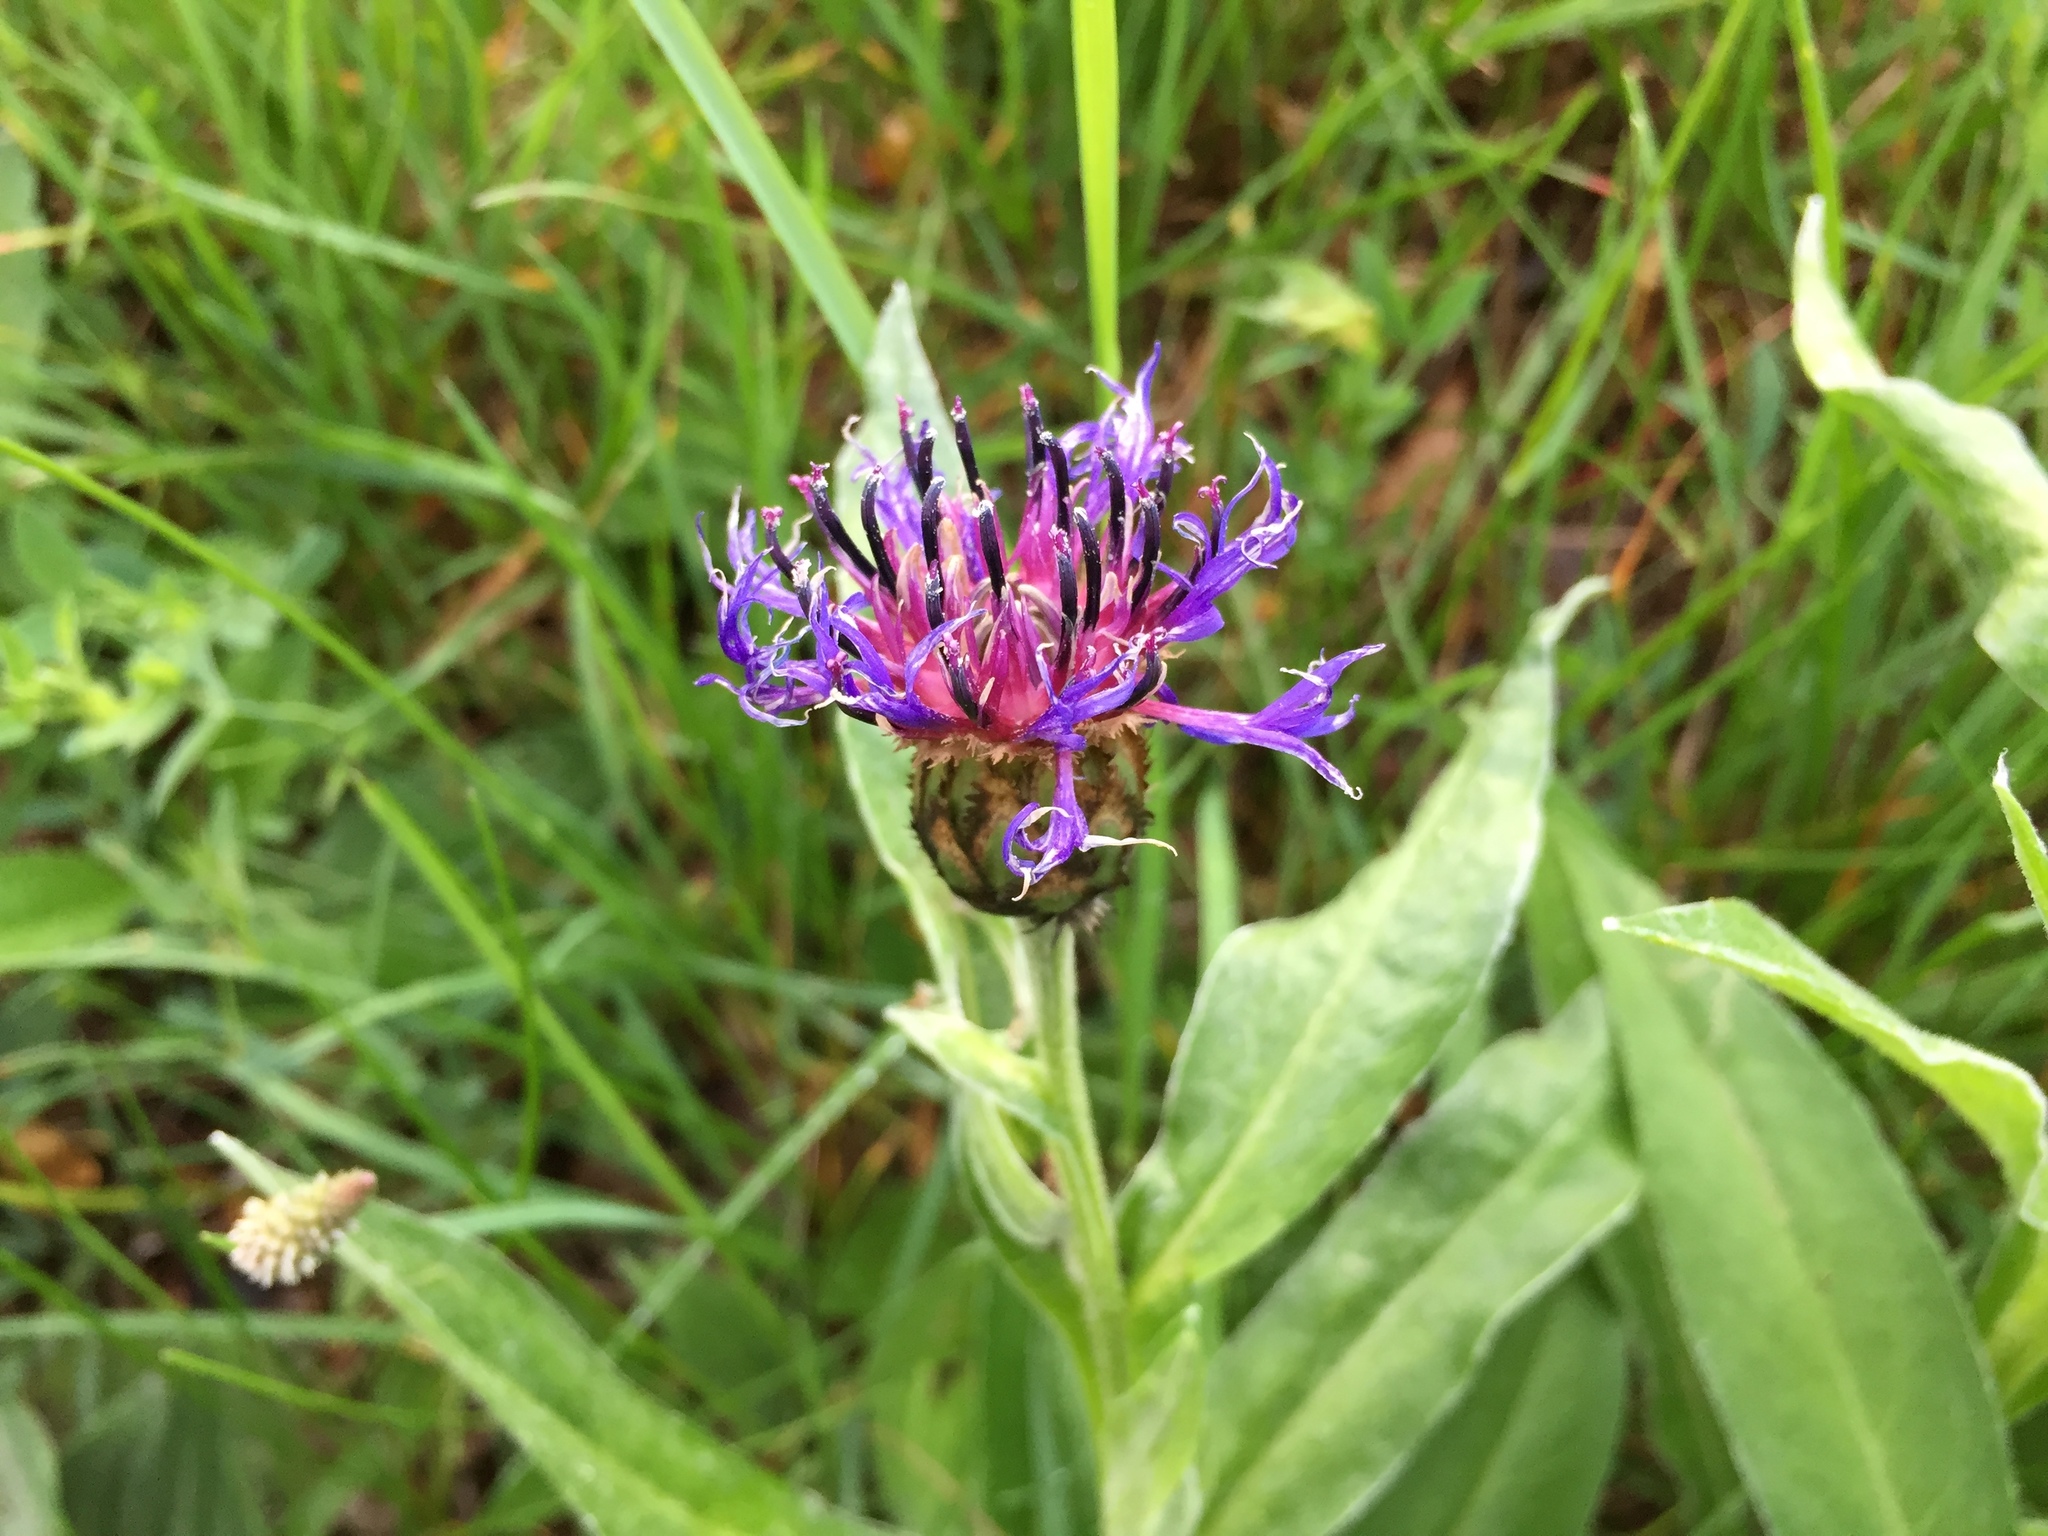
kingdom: Plantae
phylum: Tracheophyta
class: Magnoliopsida
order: Asterales
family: Asteraceae
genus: Centaurea
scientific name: Centaurea montana
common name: Perennial cornflower
